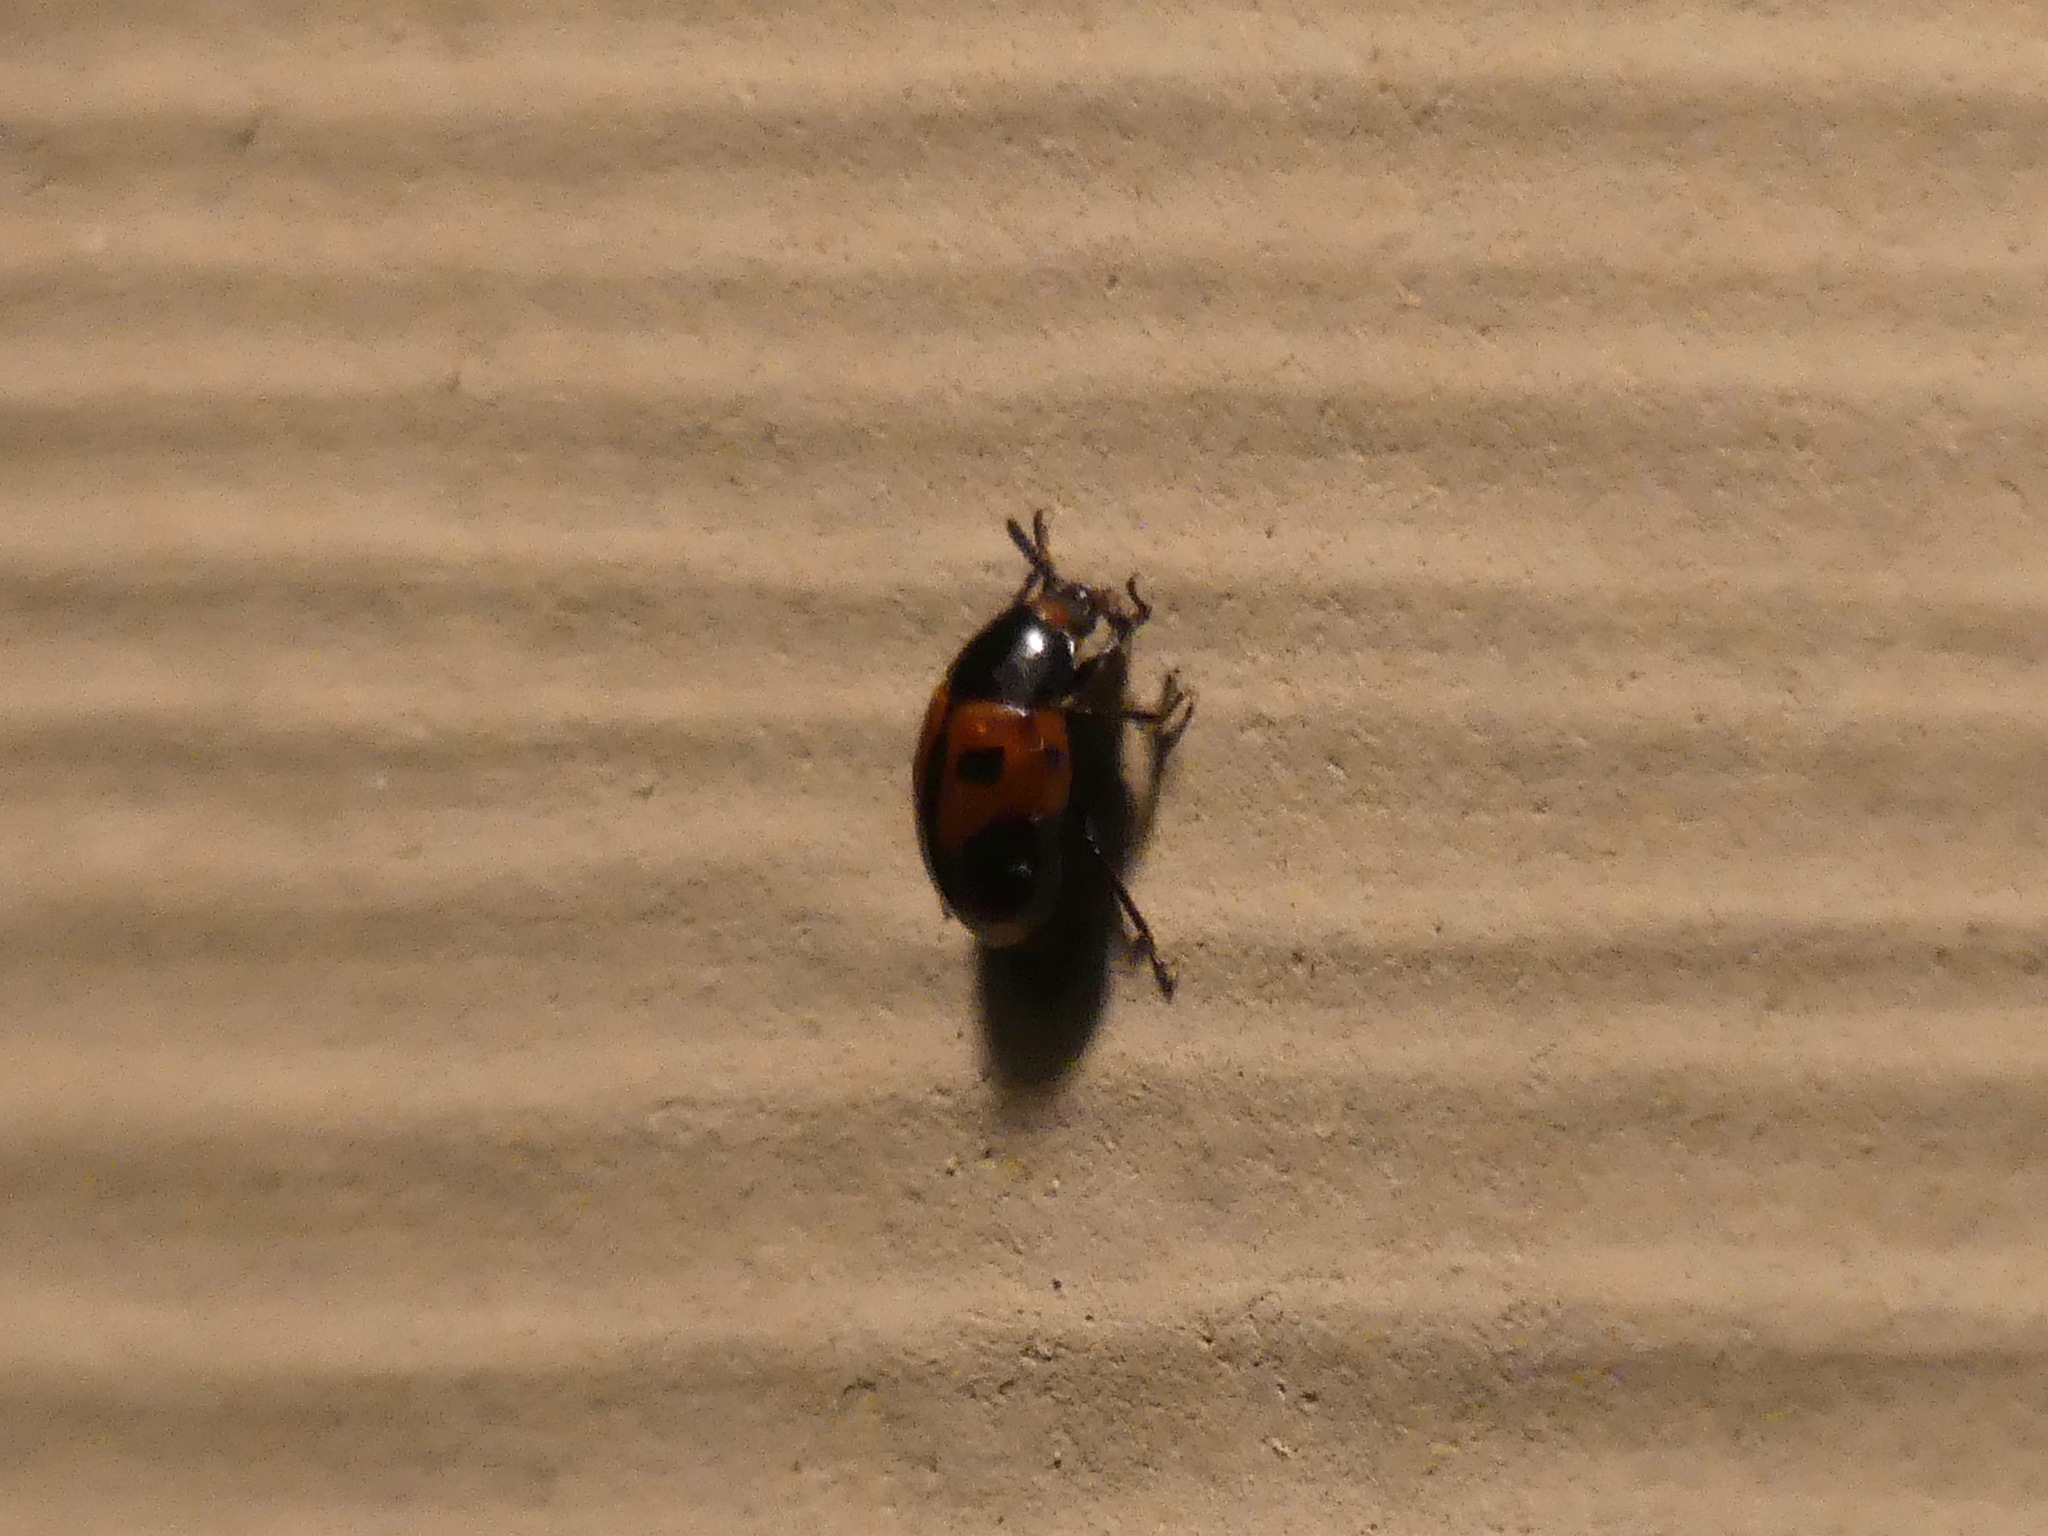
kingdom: Animalia
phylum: Arthropoda
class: Insecta
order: Coleoptera
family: Tenebrionidae
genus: Diaperis
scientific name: Diaperis maculata
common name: Darkling beetle
